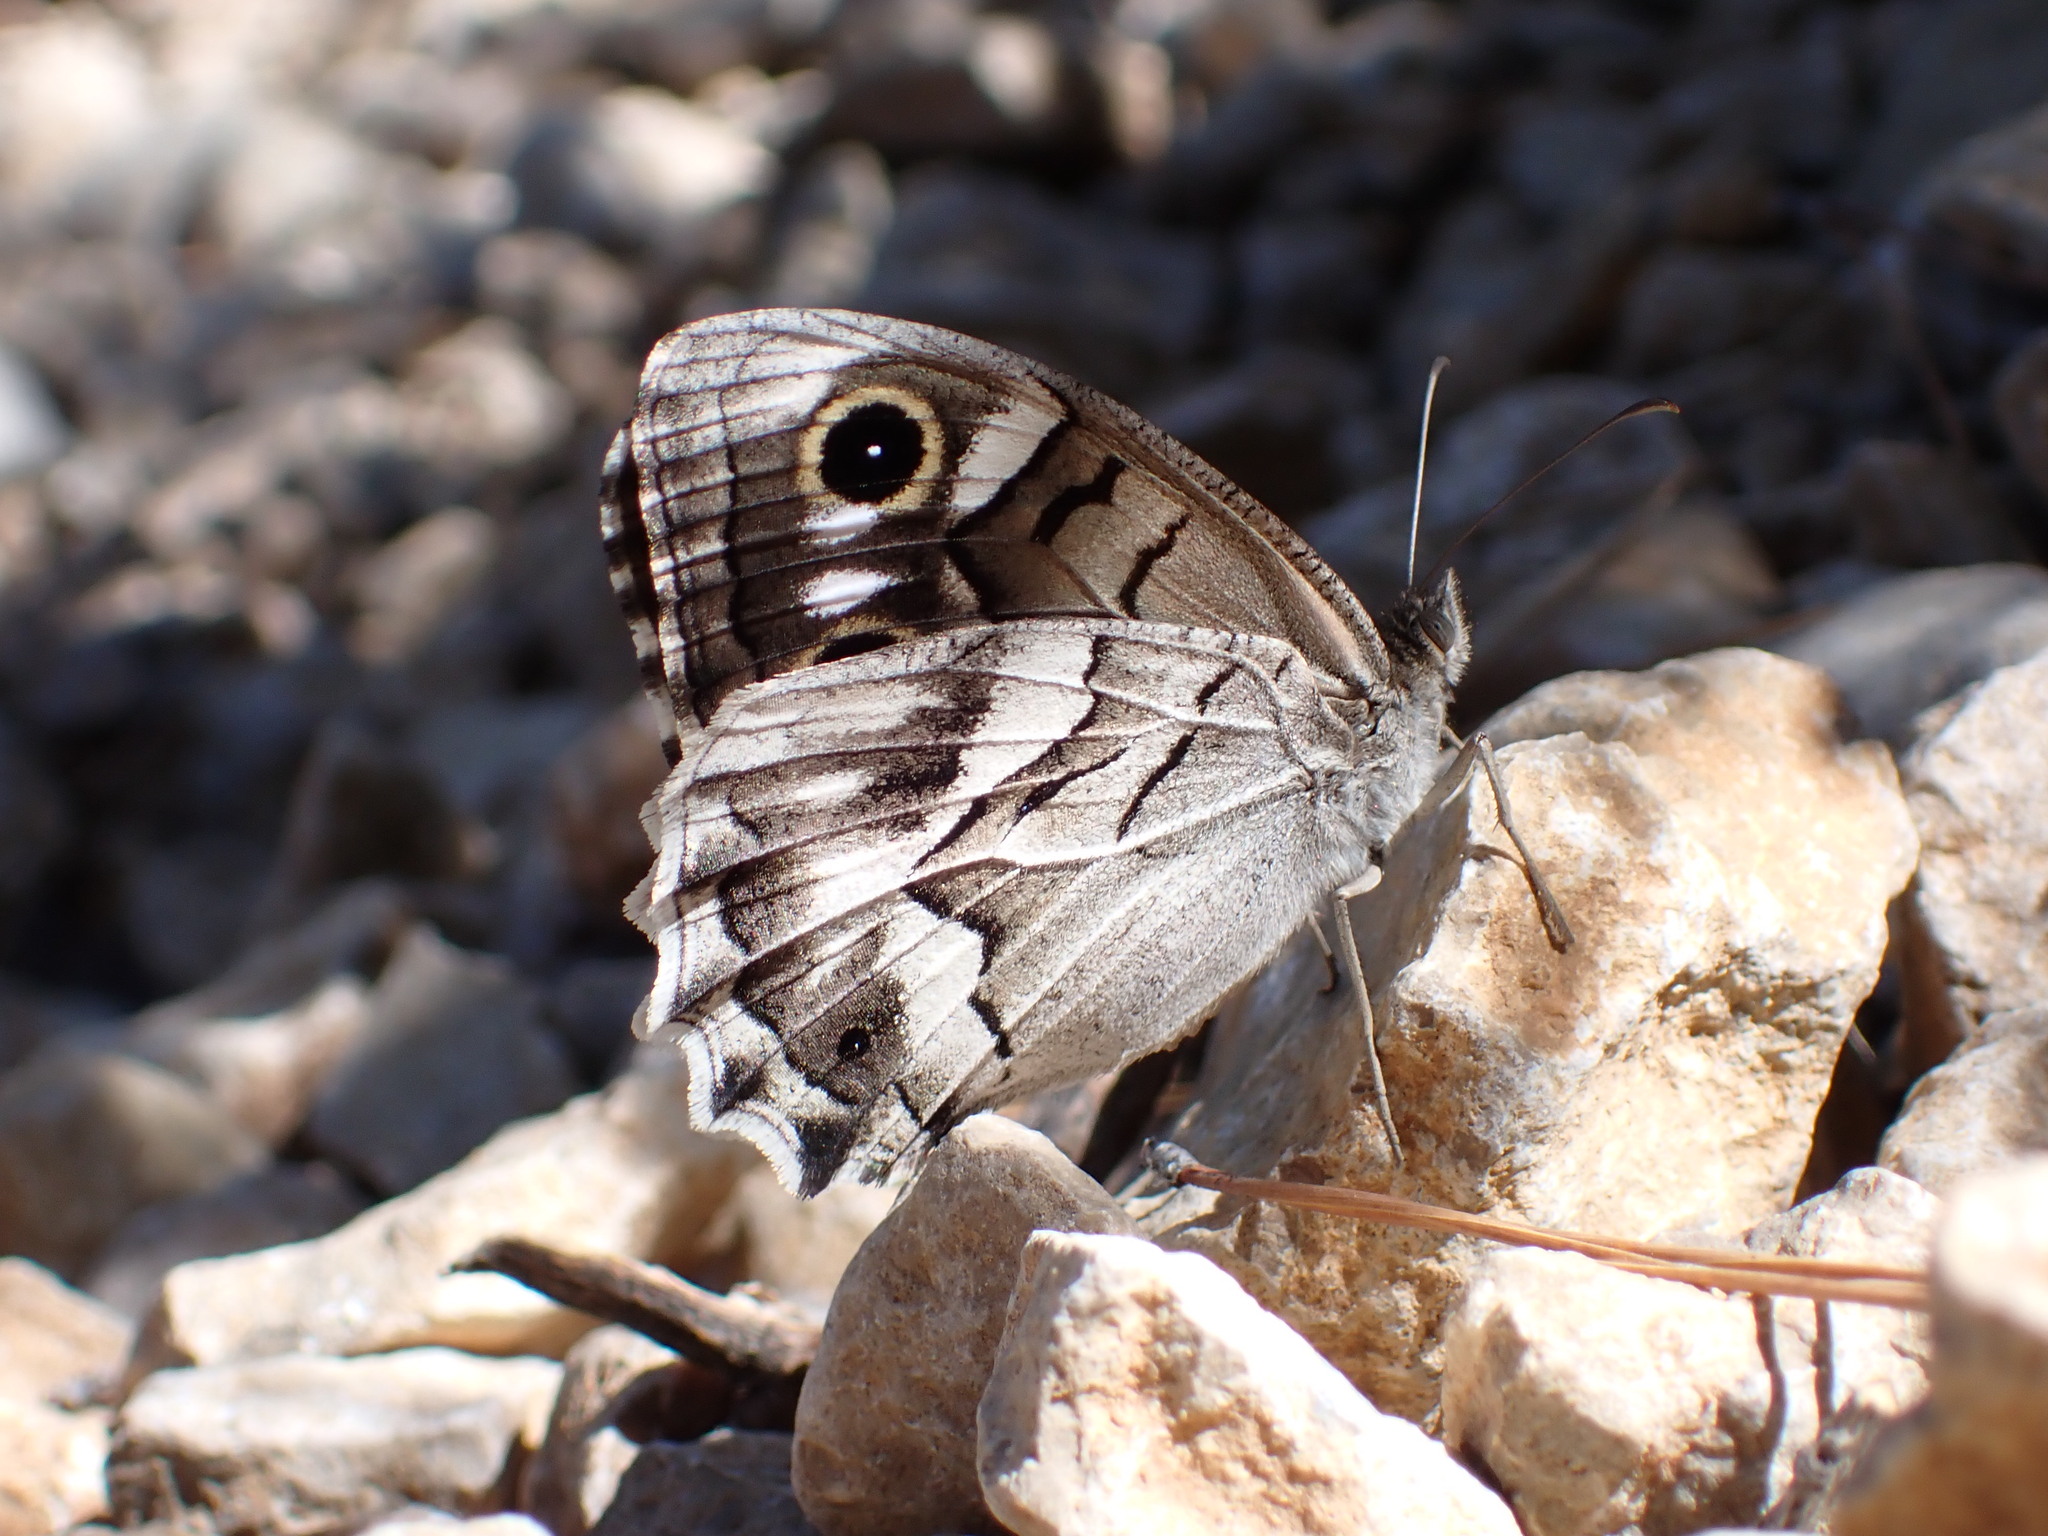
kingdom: Animalia
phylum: Arthropoda
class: Insecta
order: Lepidoptera
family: Nymphalidae
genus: Hipparchia
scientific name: Hipparchia fidia
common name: Striped grayling
